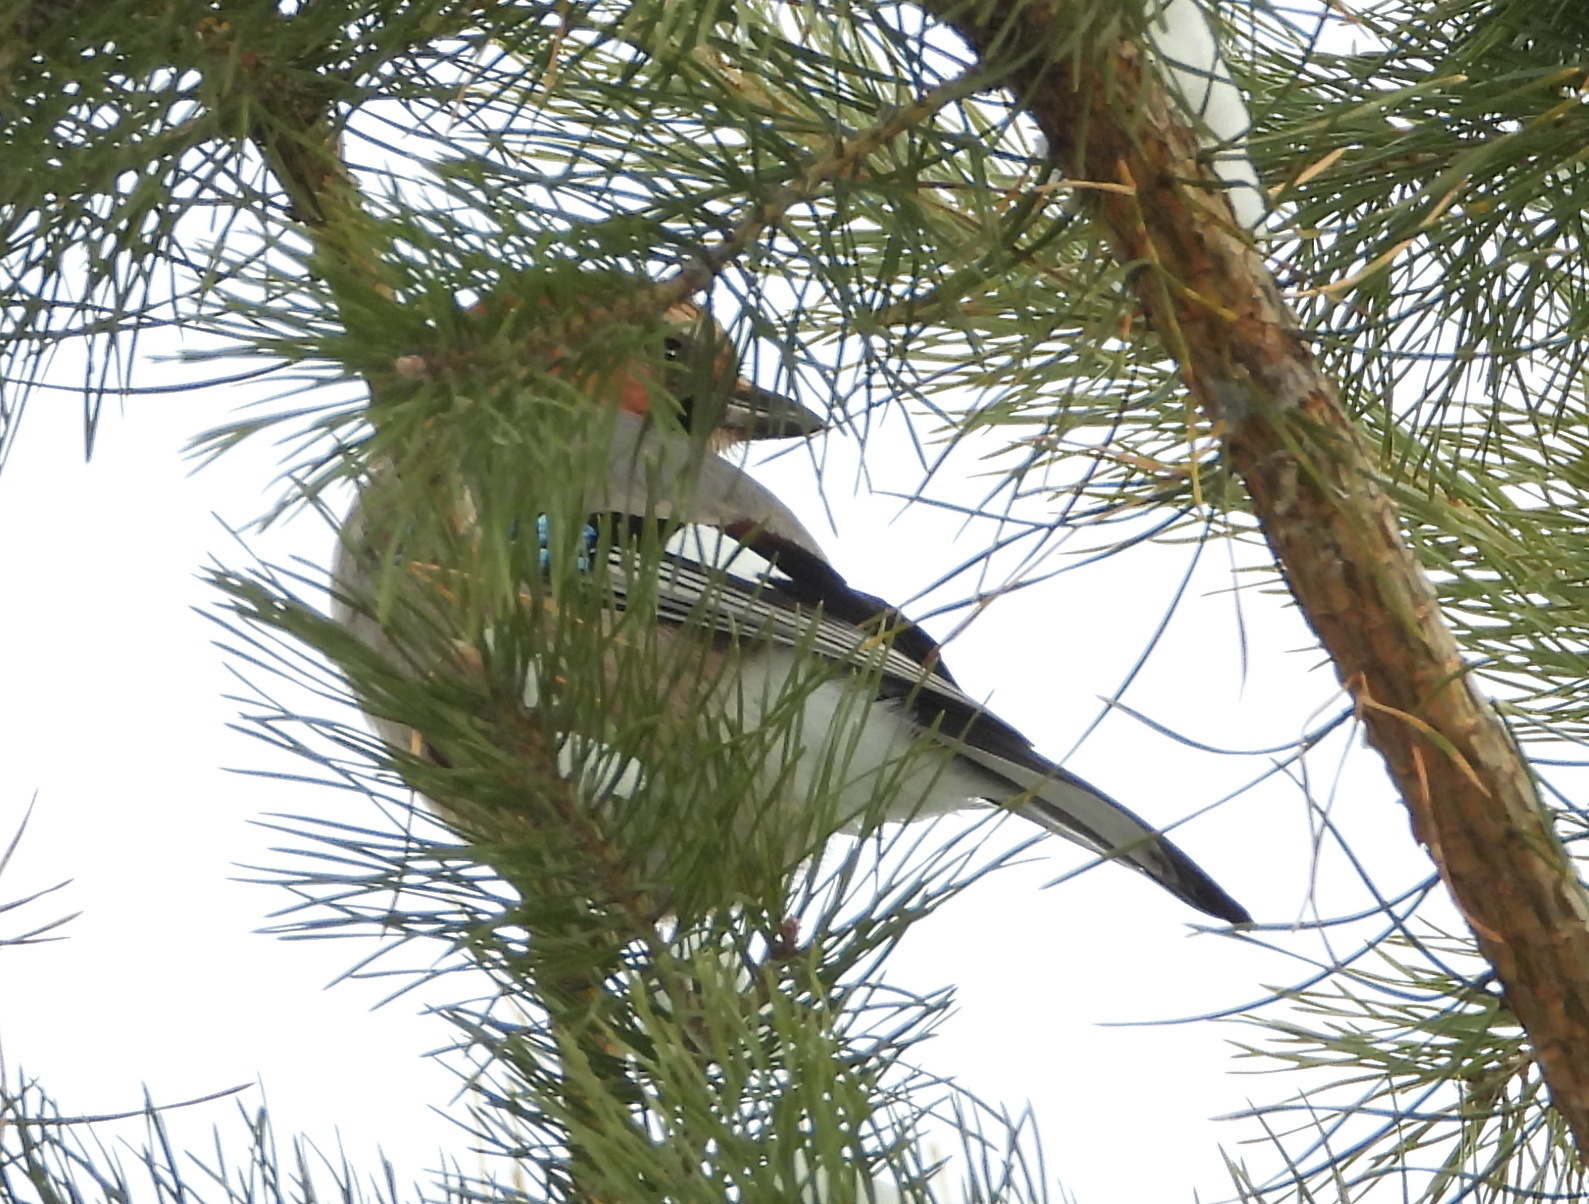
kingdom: Animalia
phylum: Chordata
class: Aves
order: Passeriformes
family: Corvidae
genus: Garrulus
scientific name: Garrulus glandarius
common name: Eurasian jay
